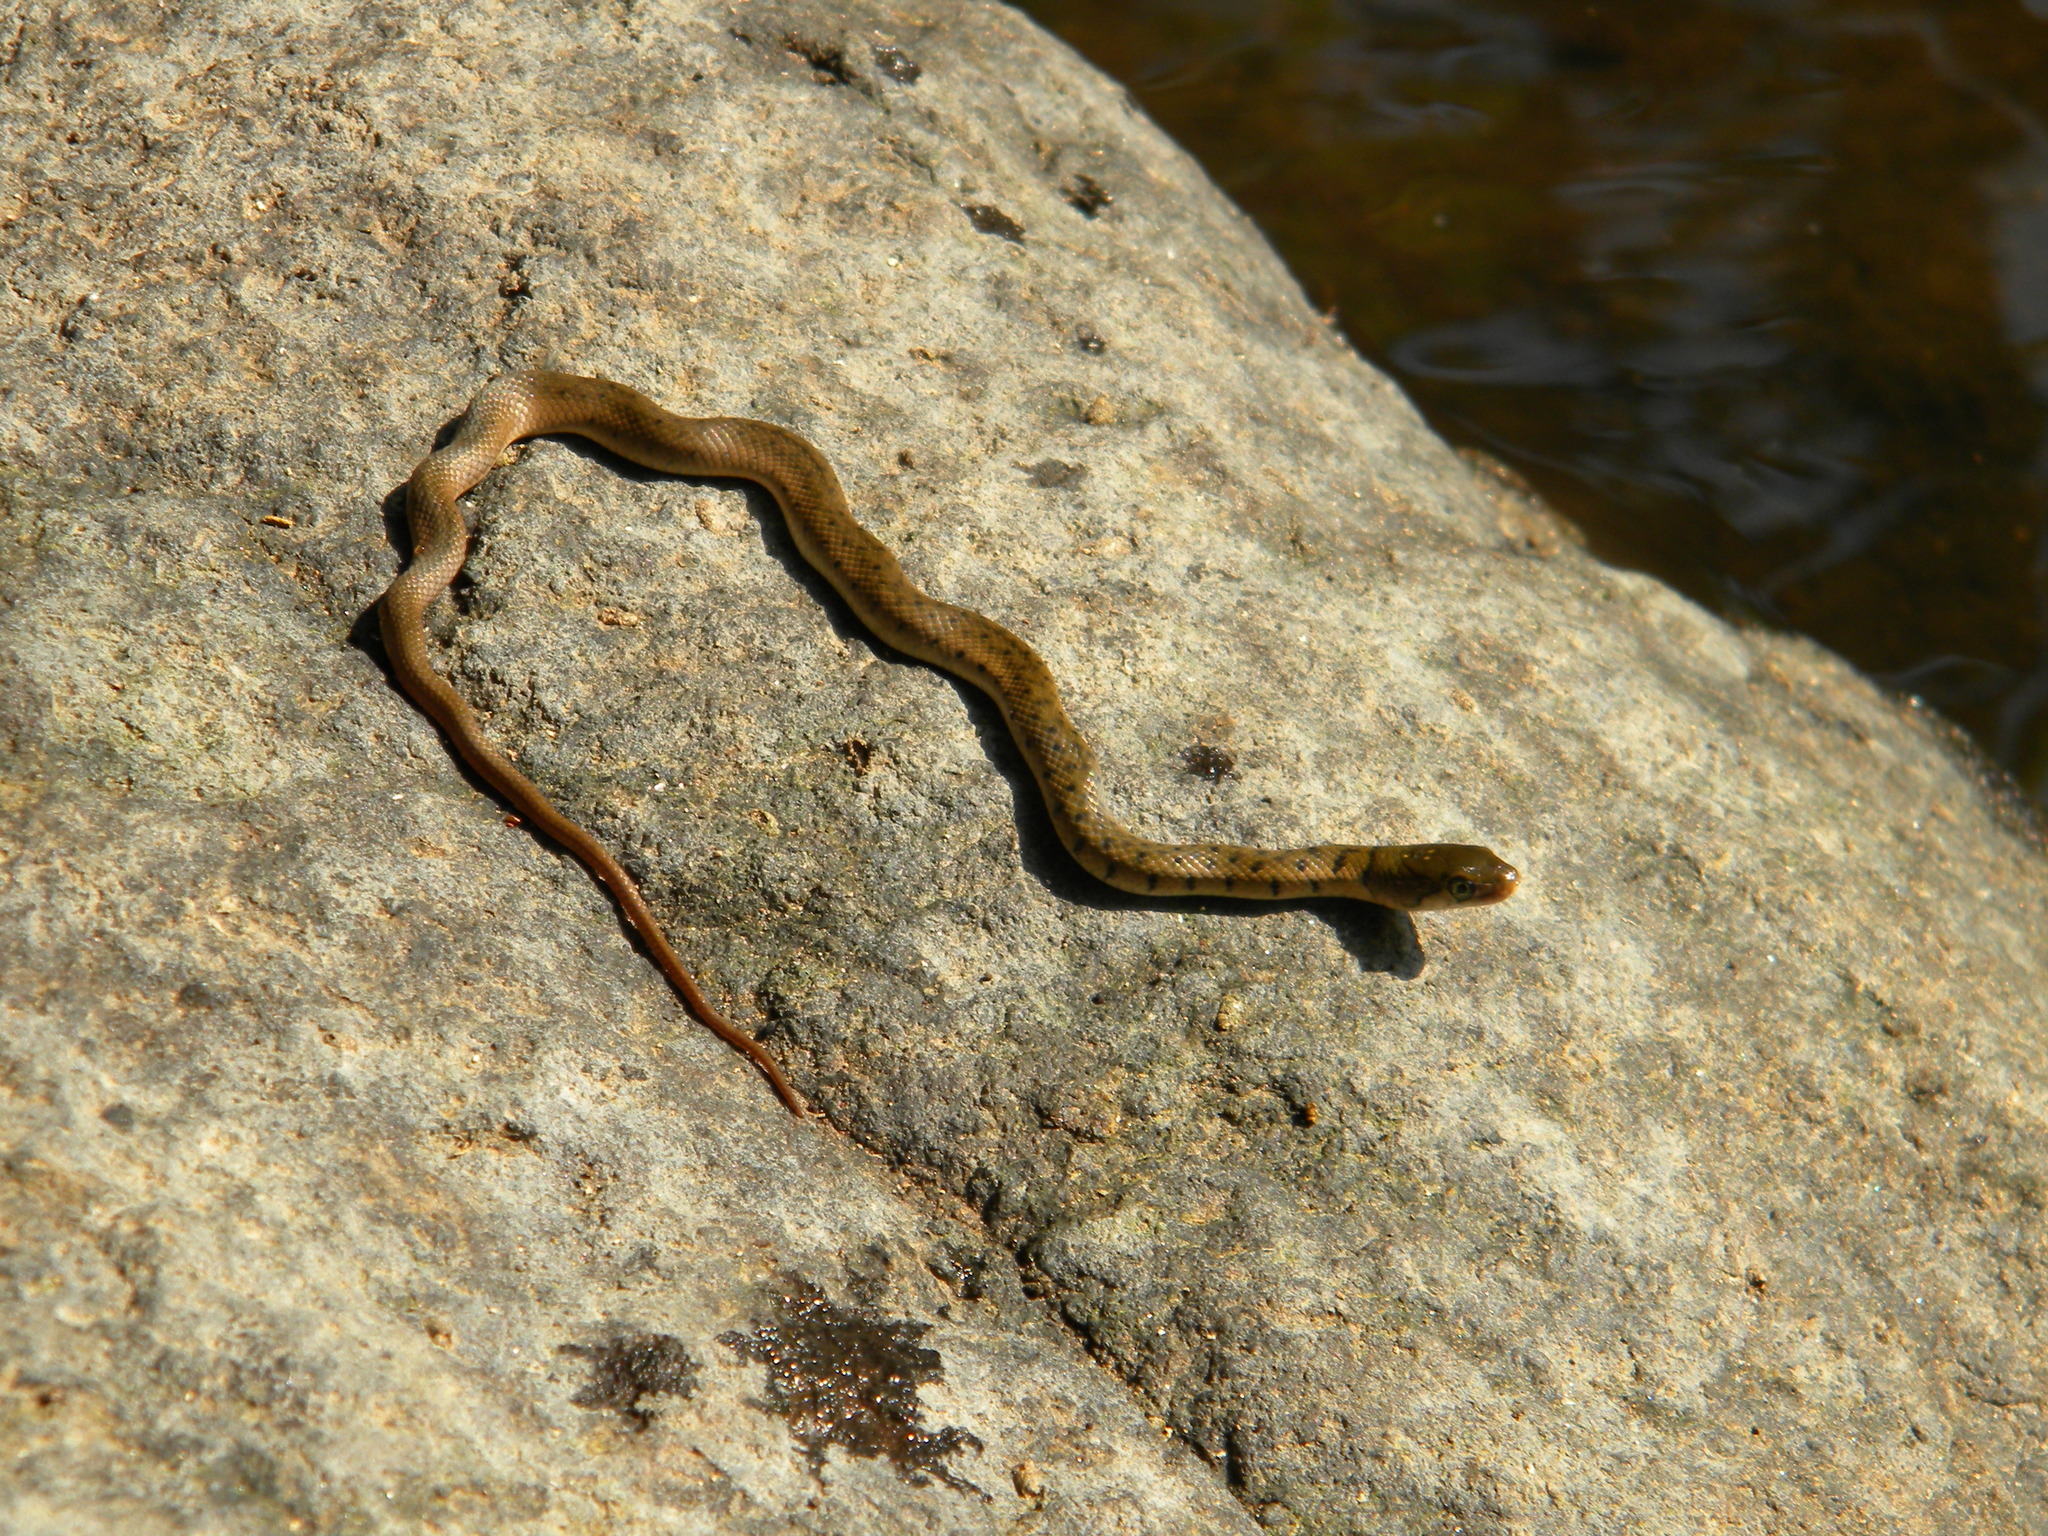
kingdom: Animalia
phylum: Chordata
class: Squamata
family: Colubridae
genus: Fowlea
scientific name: Fowlea piscator
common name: Asiatic water snake
